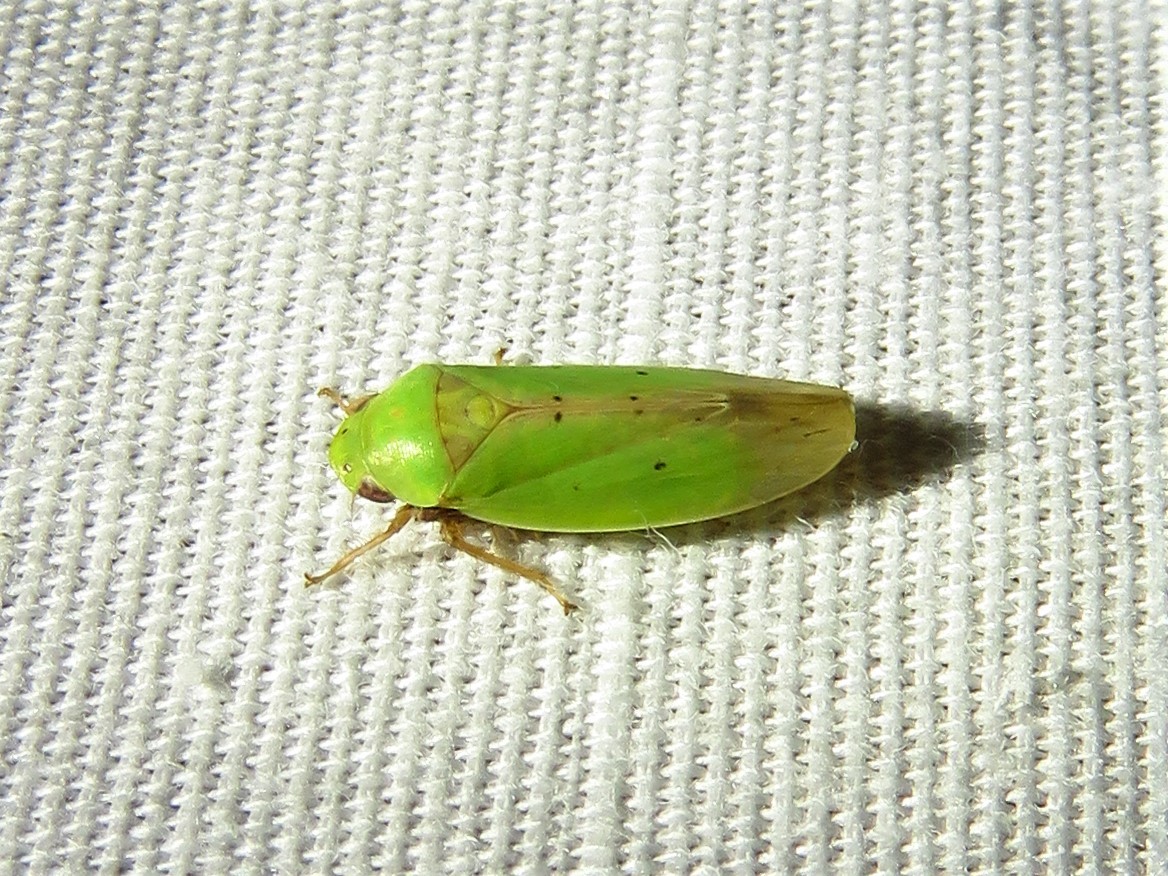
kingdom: Animalia
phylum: Arthropoda
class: Insecta
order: Hemiptera
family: Cicadellidae
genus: Ponana
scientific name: Ponana
